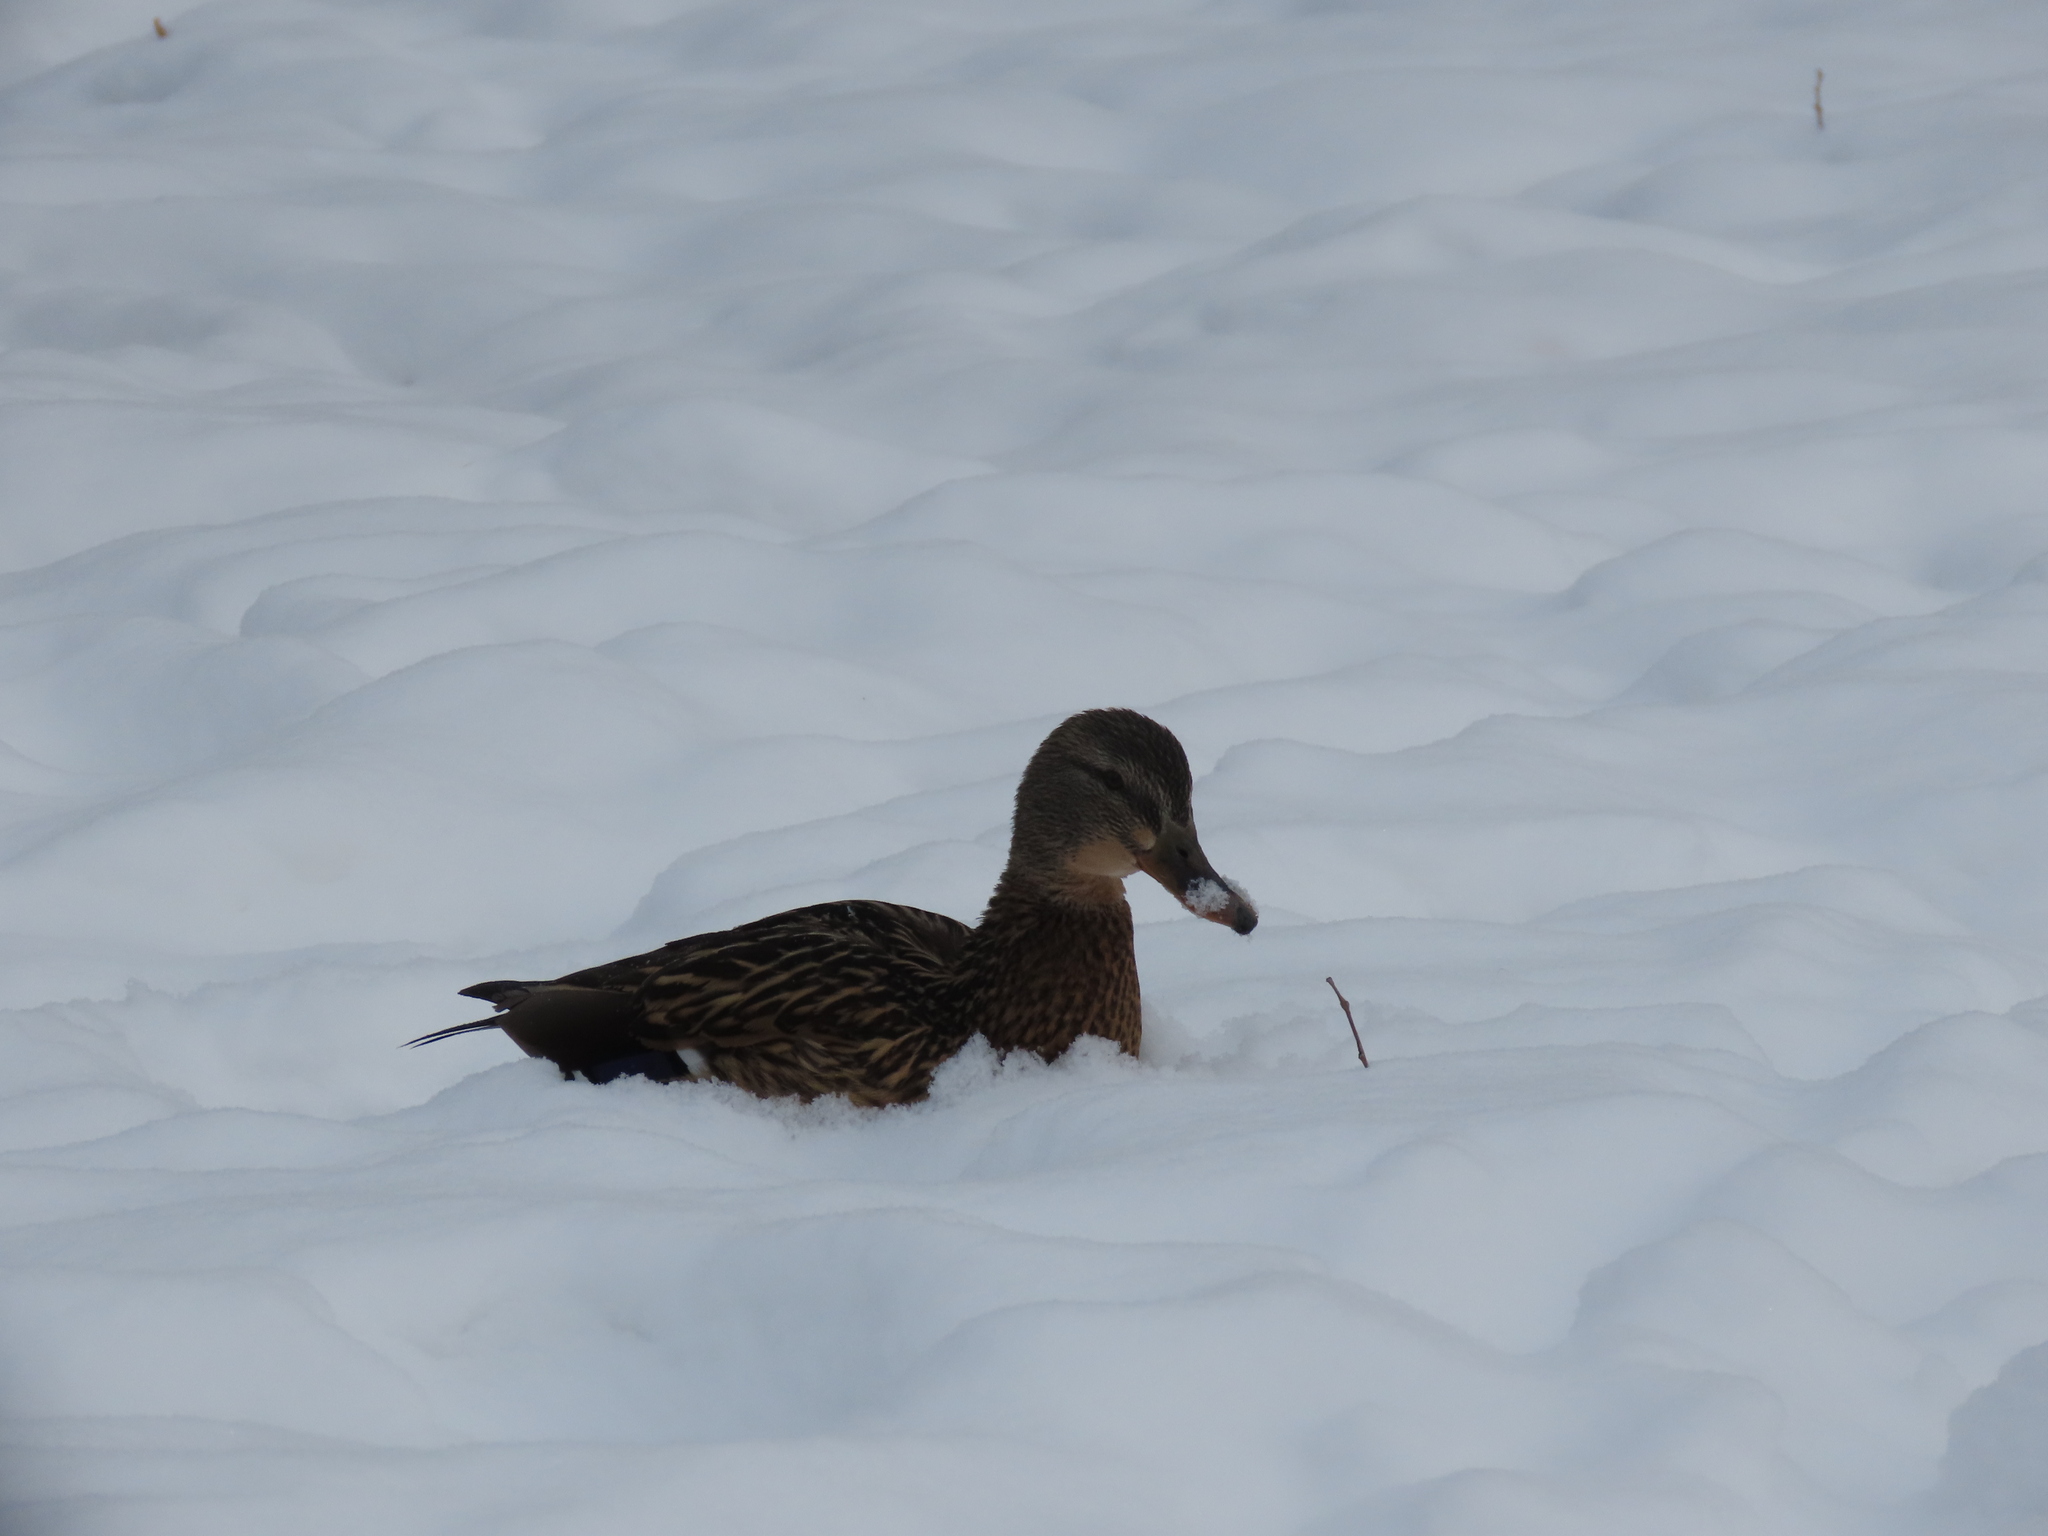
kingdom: Animalia
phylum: Chordata
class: Aves
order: Anseriformes
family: Anatidae
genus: Anas
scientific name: Anas platyrhynchos
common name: Mallard
